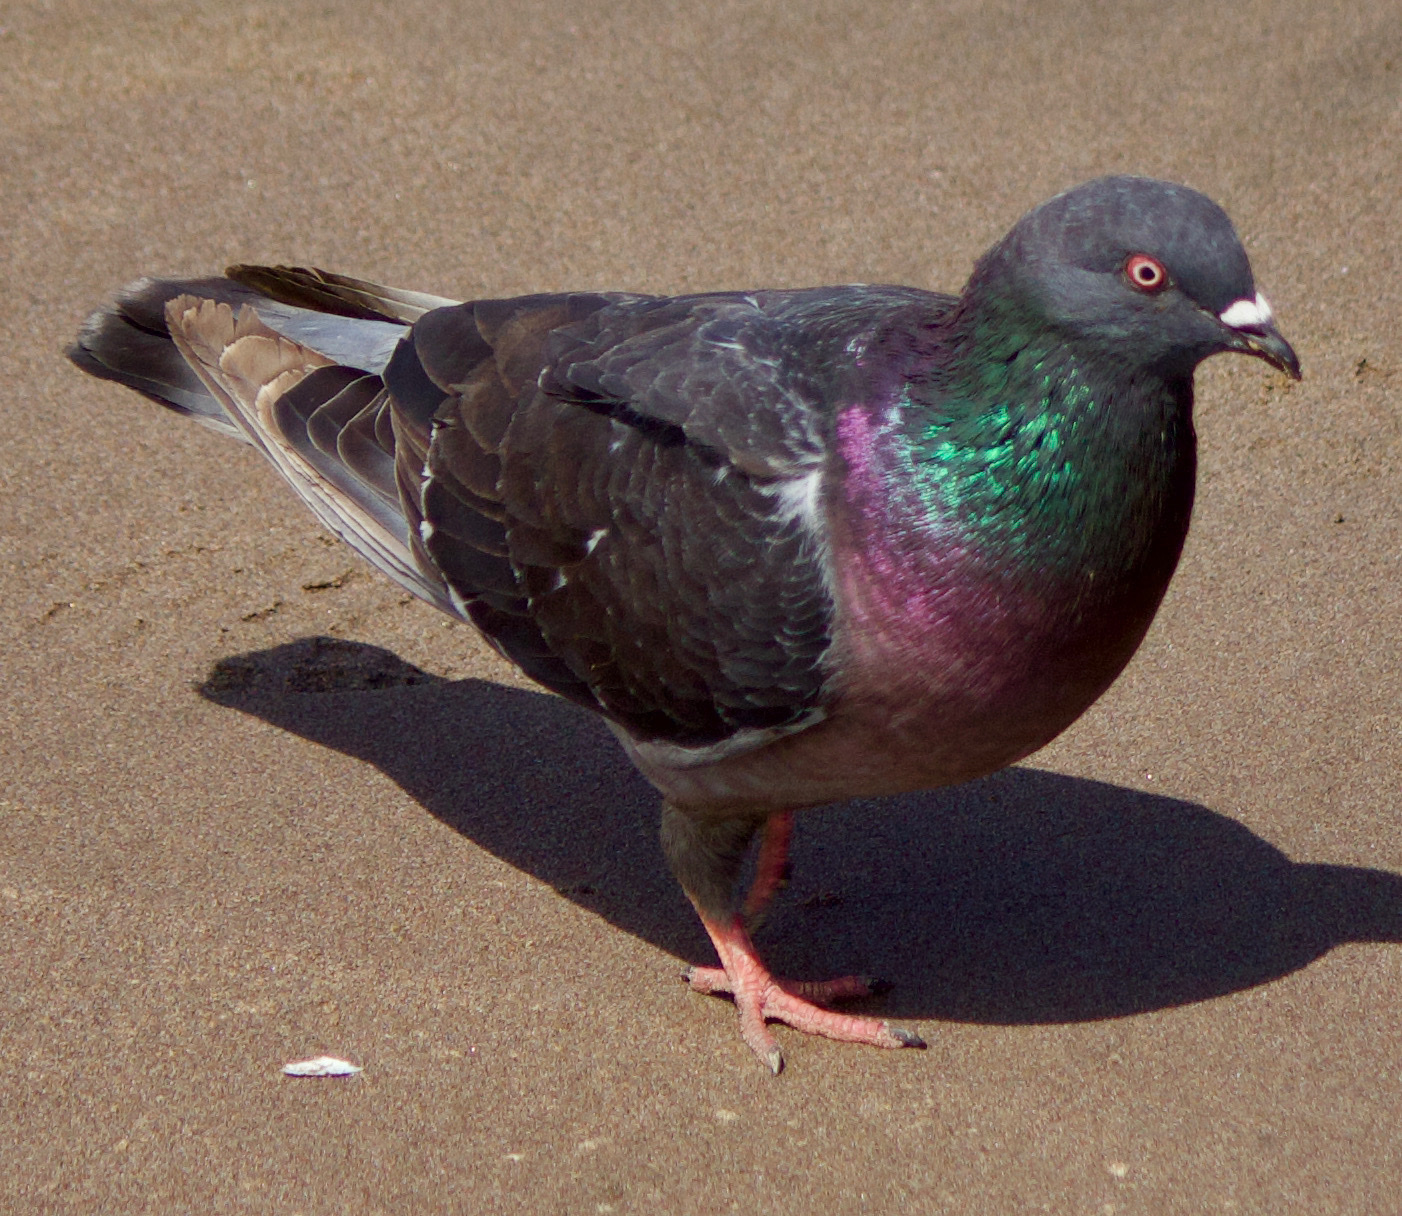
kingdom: Animalia
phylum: Chordata
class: Aves
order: Columbiformes
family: Columbidae
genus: Columba
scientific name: Columba livia
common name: Rock pigeon
